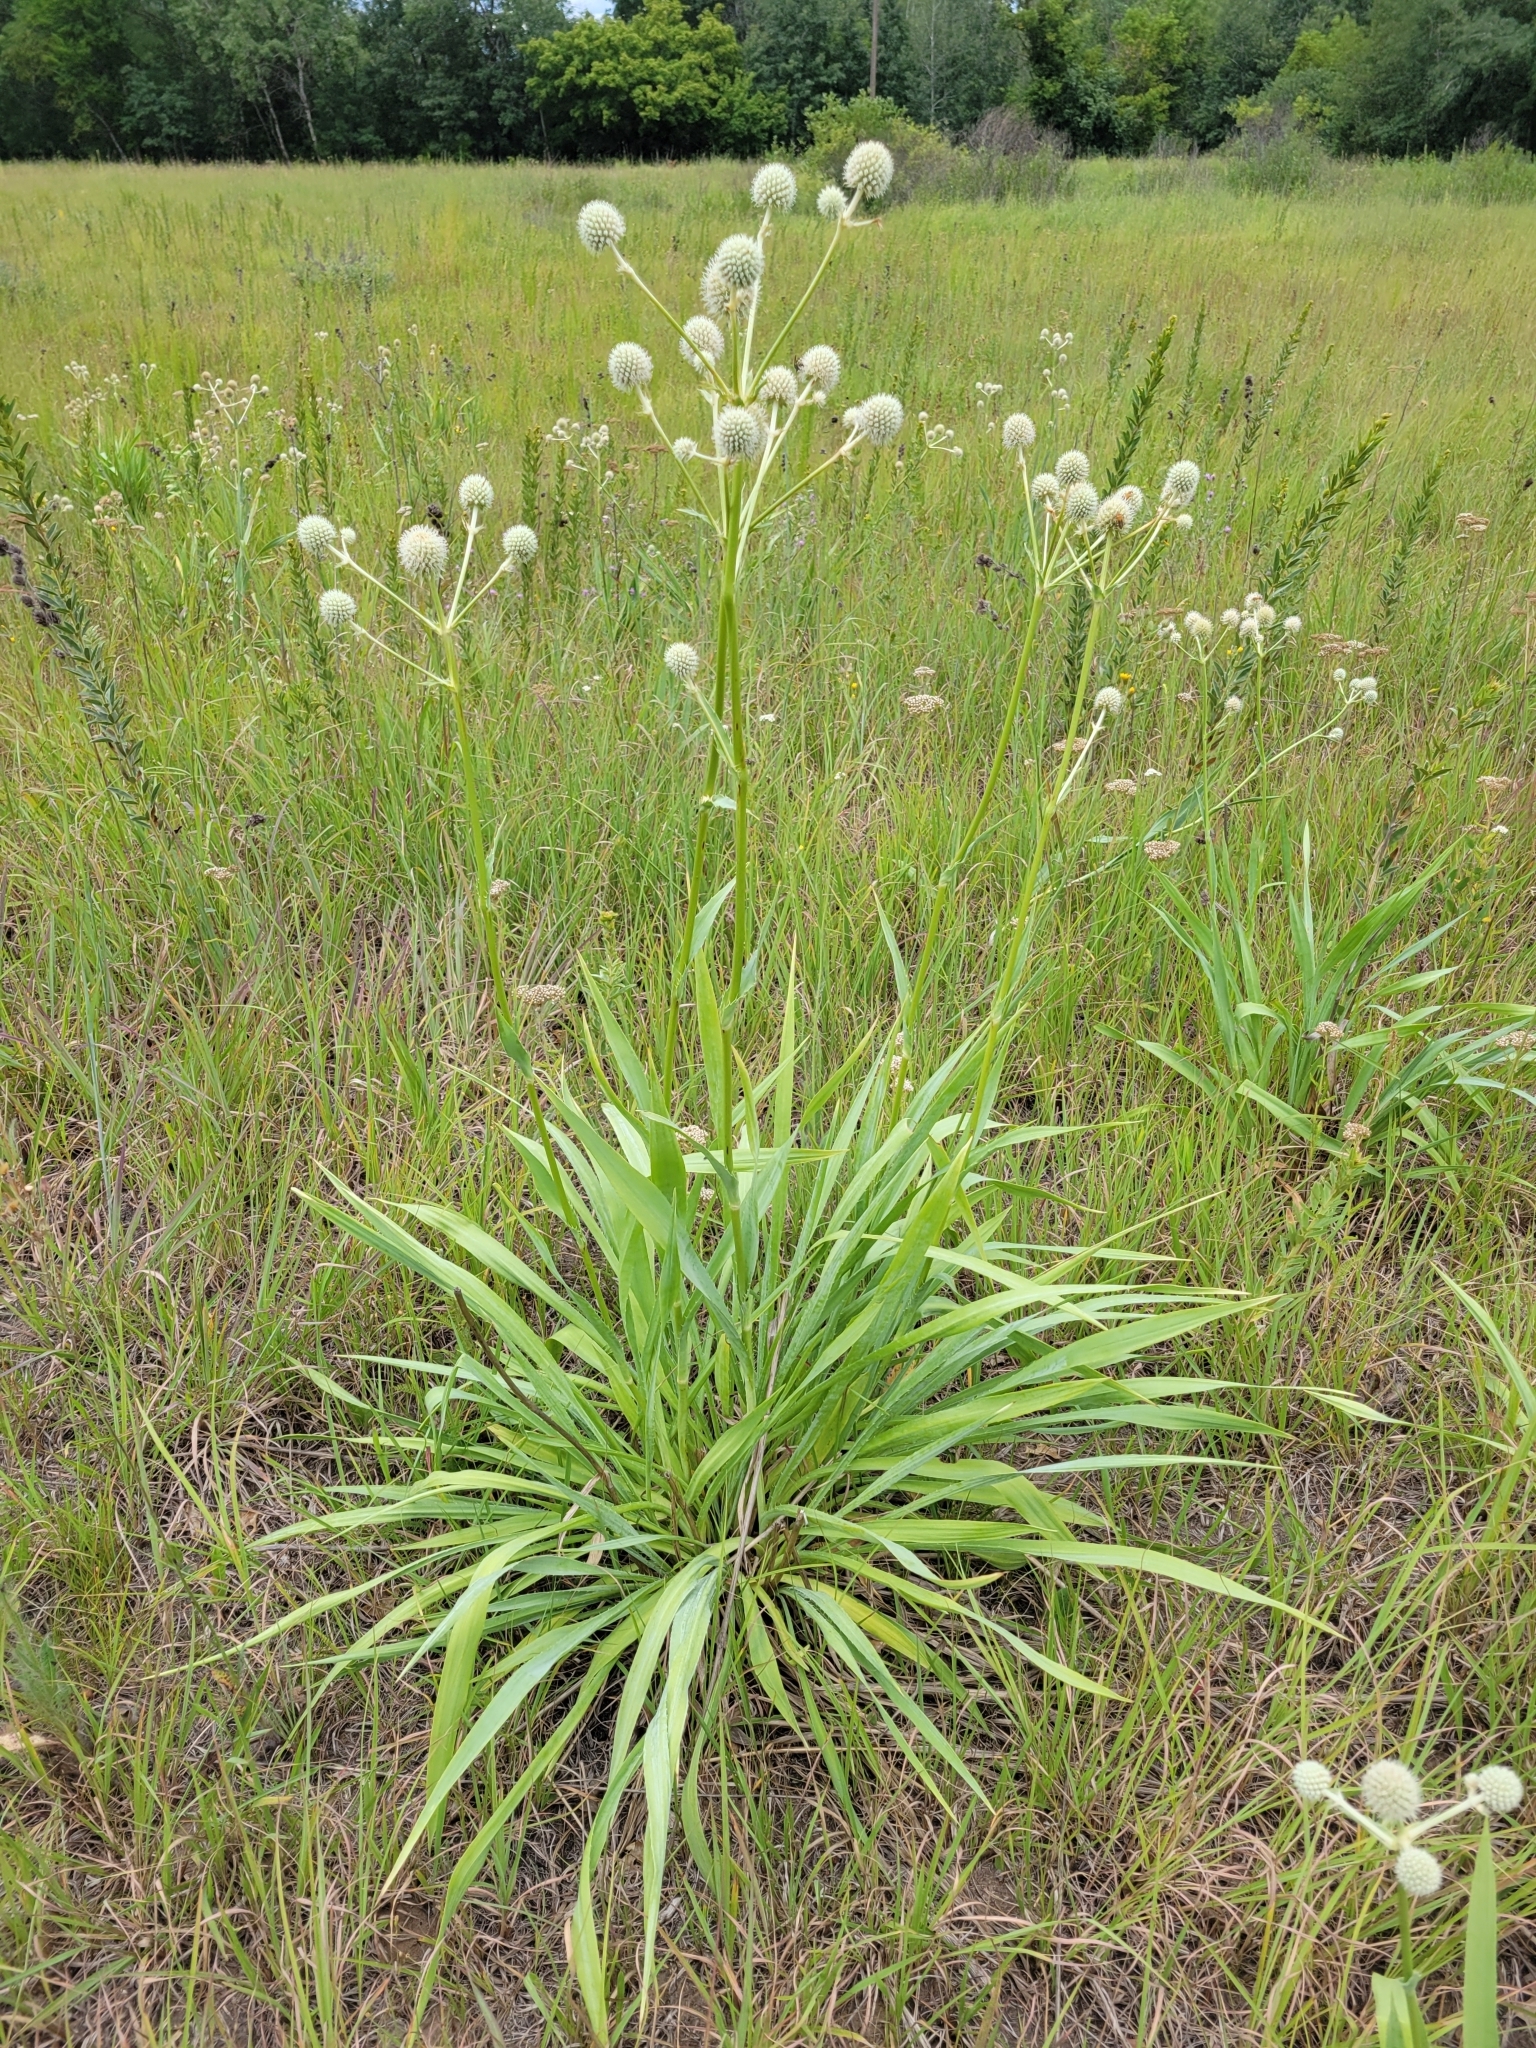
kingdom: Plantae
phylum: Tracheophyta
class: Magnoliopsida
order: Apiales
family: Apiaceae
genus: Eryngium
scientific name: Eryngium yuccifolium
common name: Button eryngo
